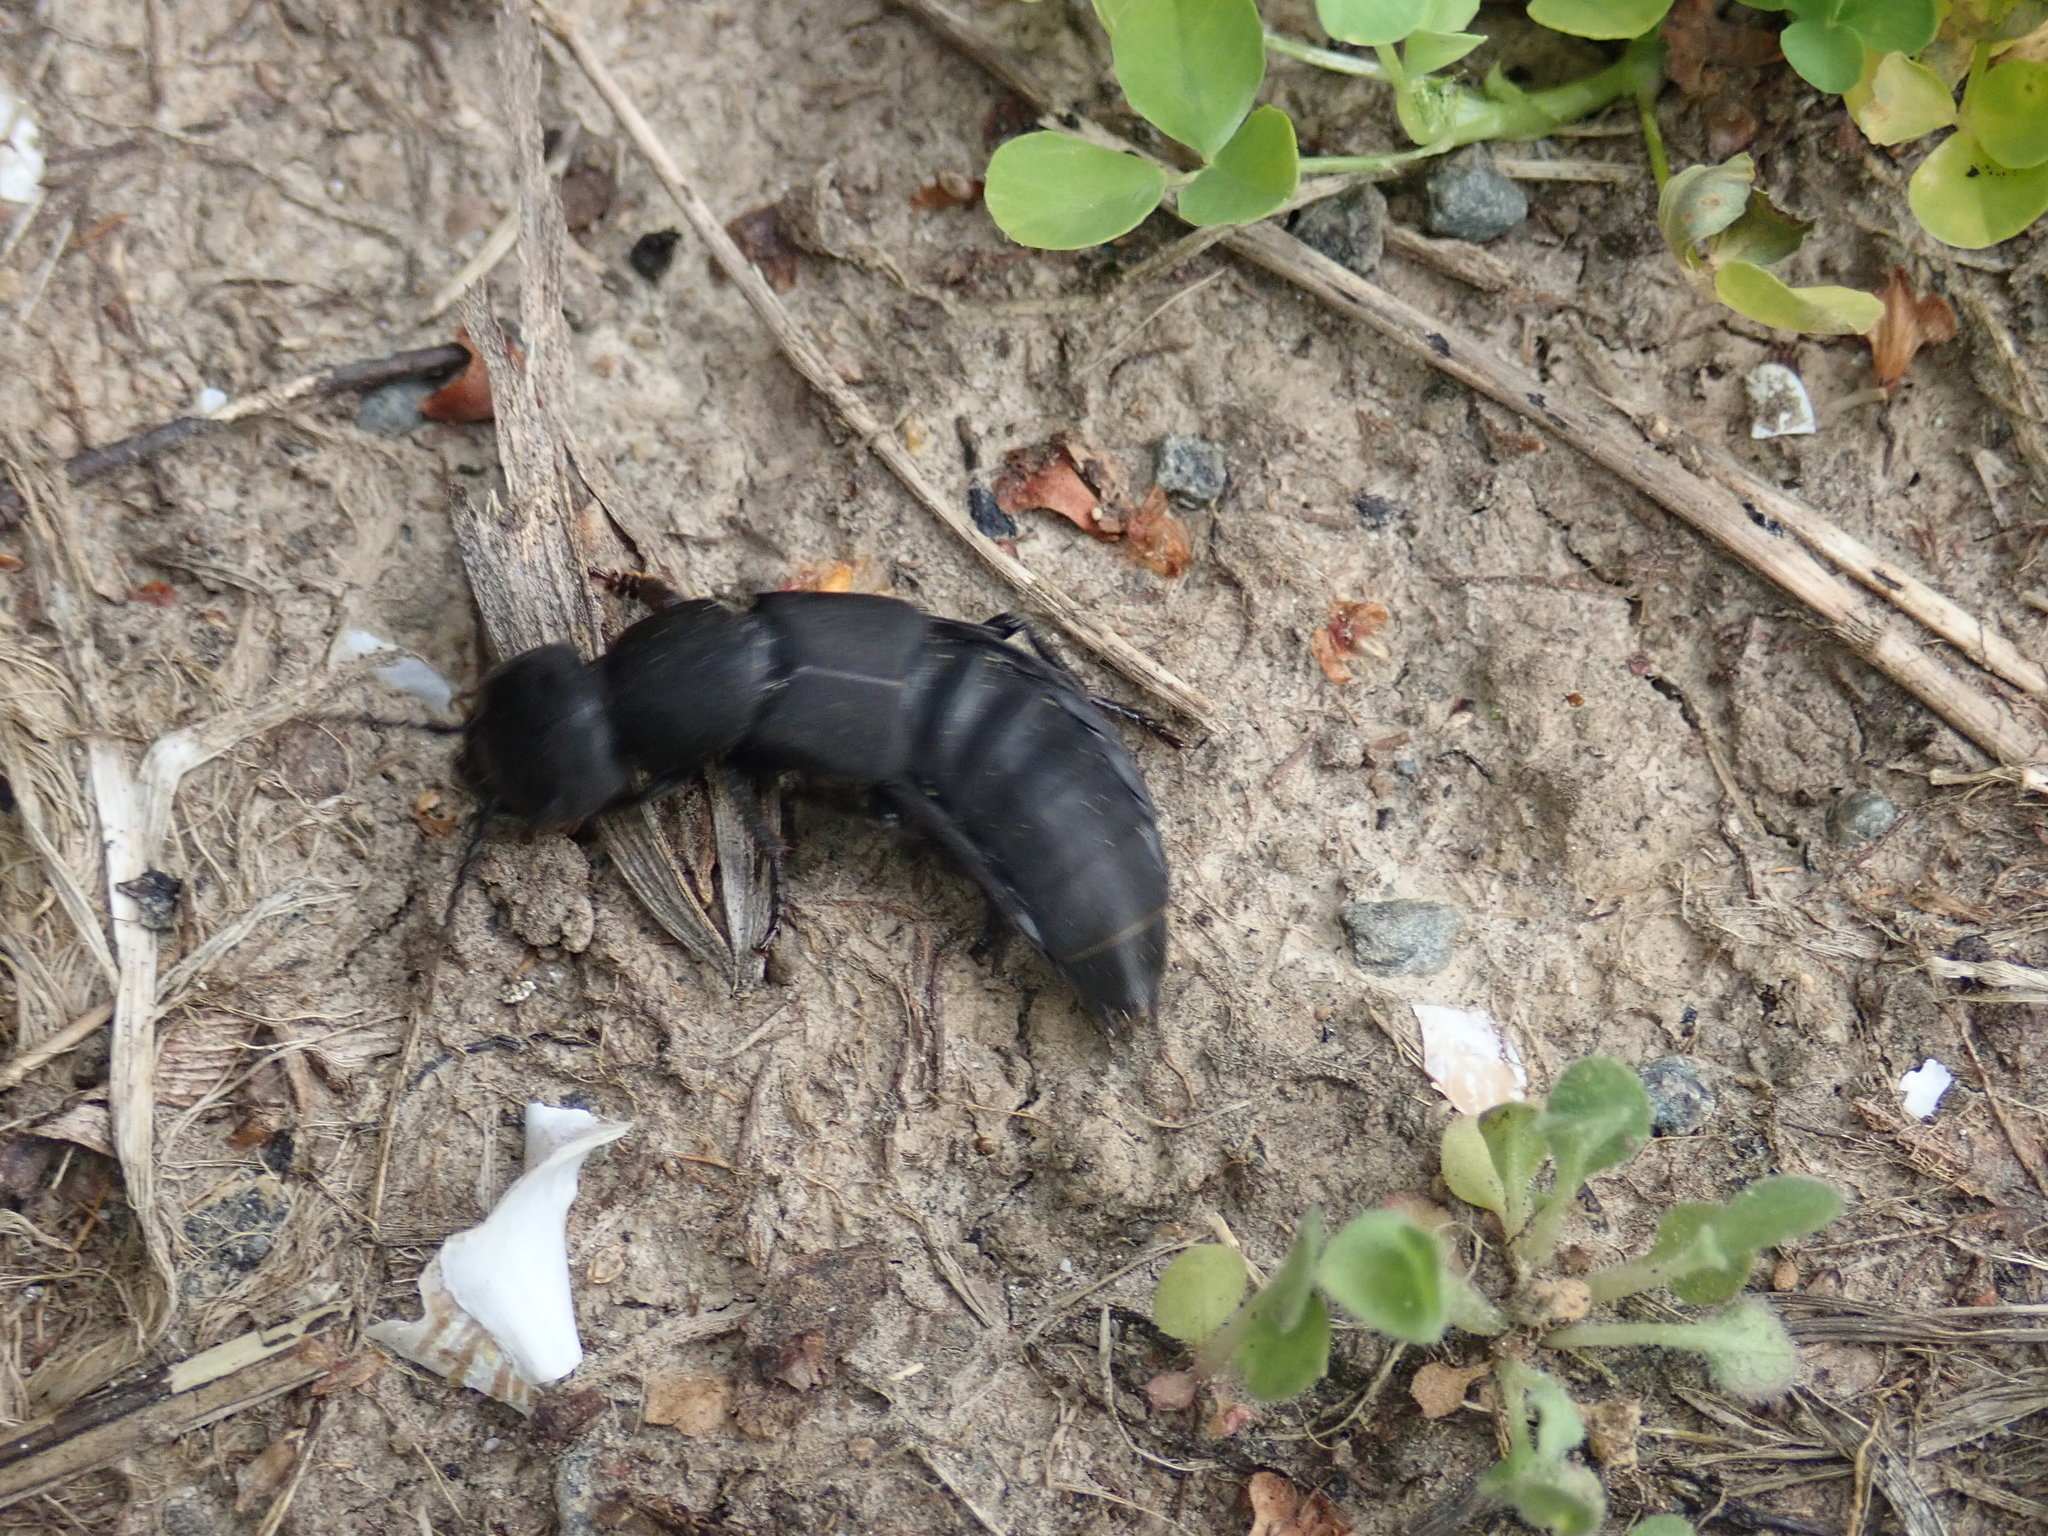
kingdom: Animalia
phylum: Arthropoda
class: Insecta
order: Coleoptera
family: Staphylinidae
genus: Ocypus
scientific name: Ocypus olens
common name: Devil's coach-horse
